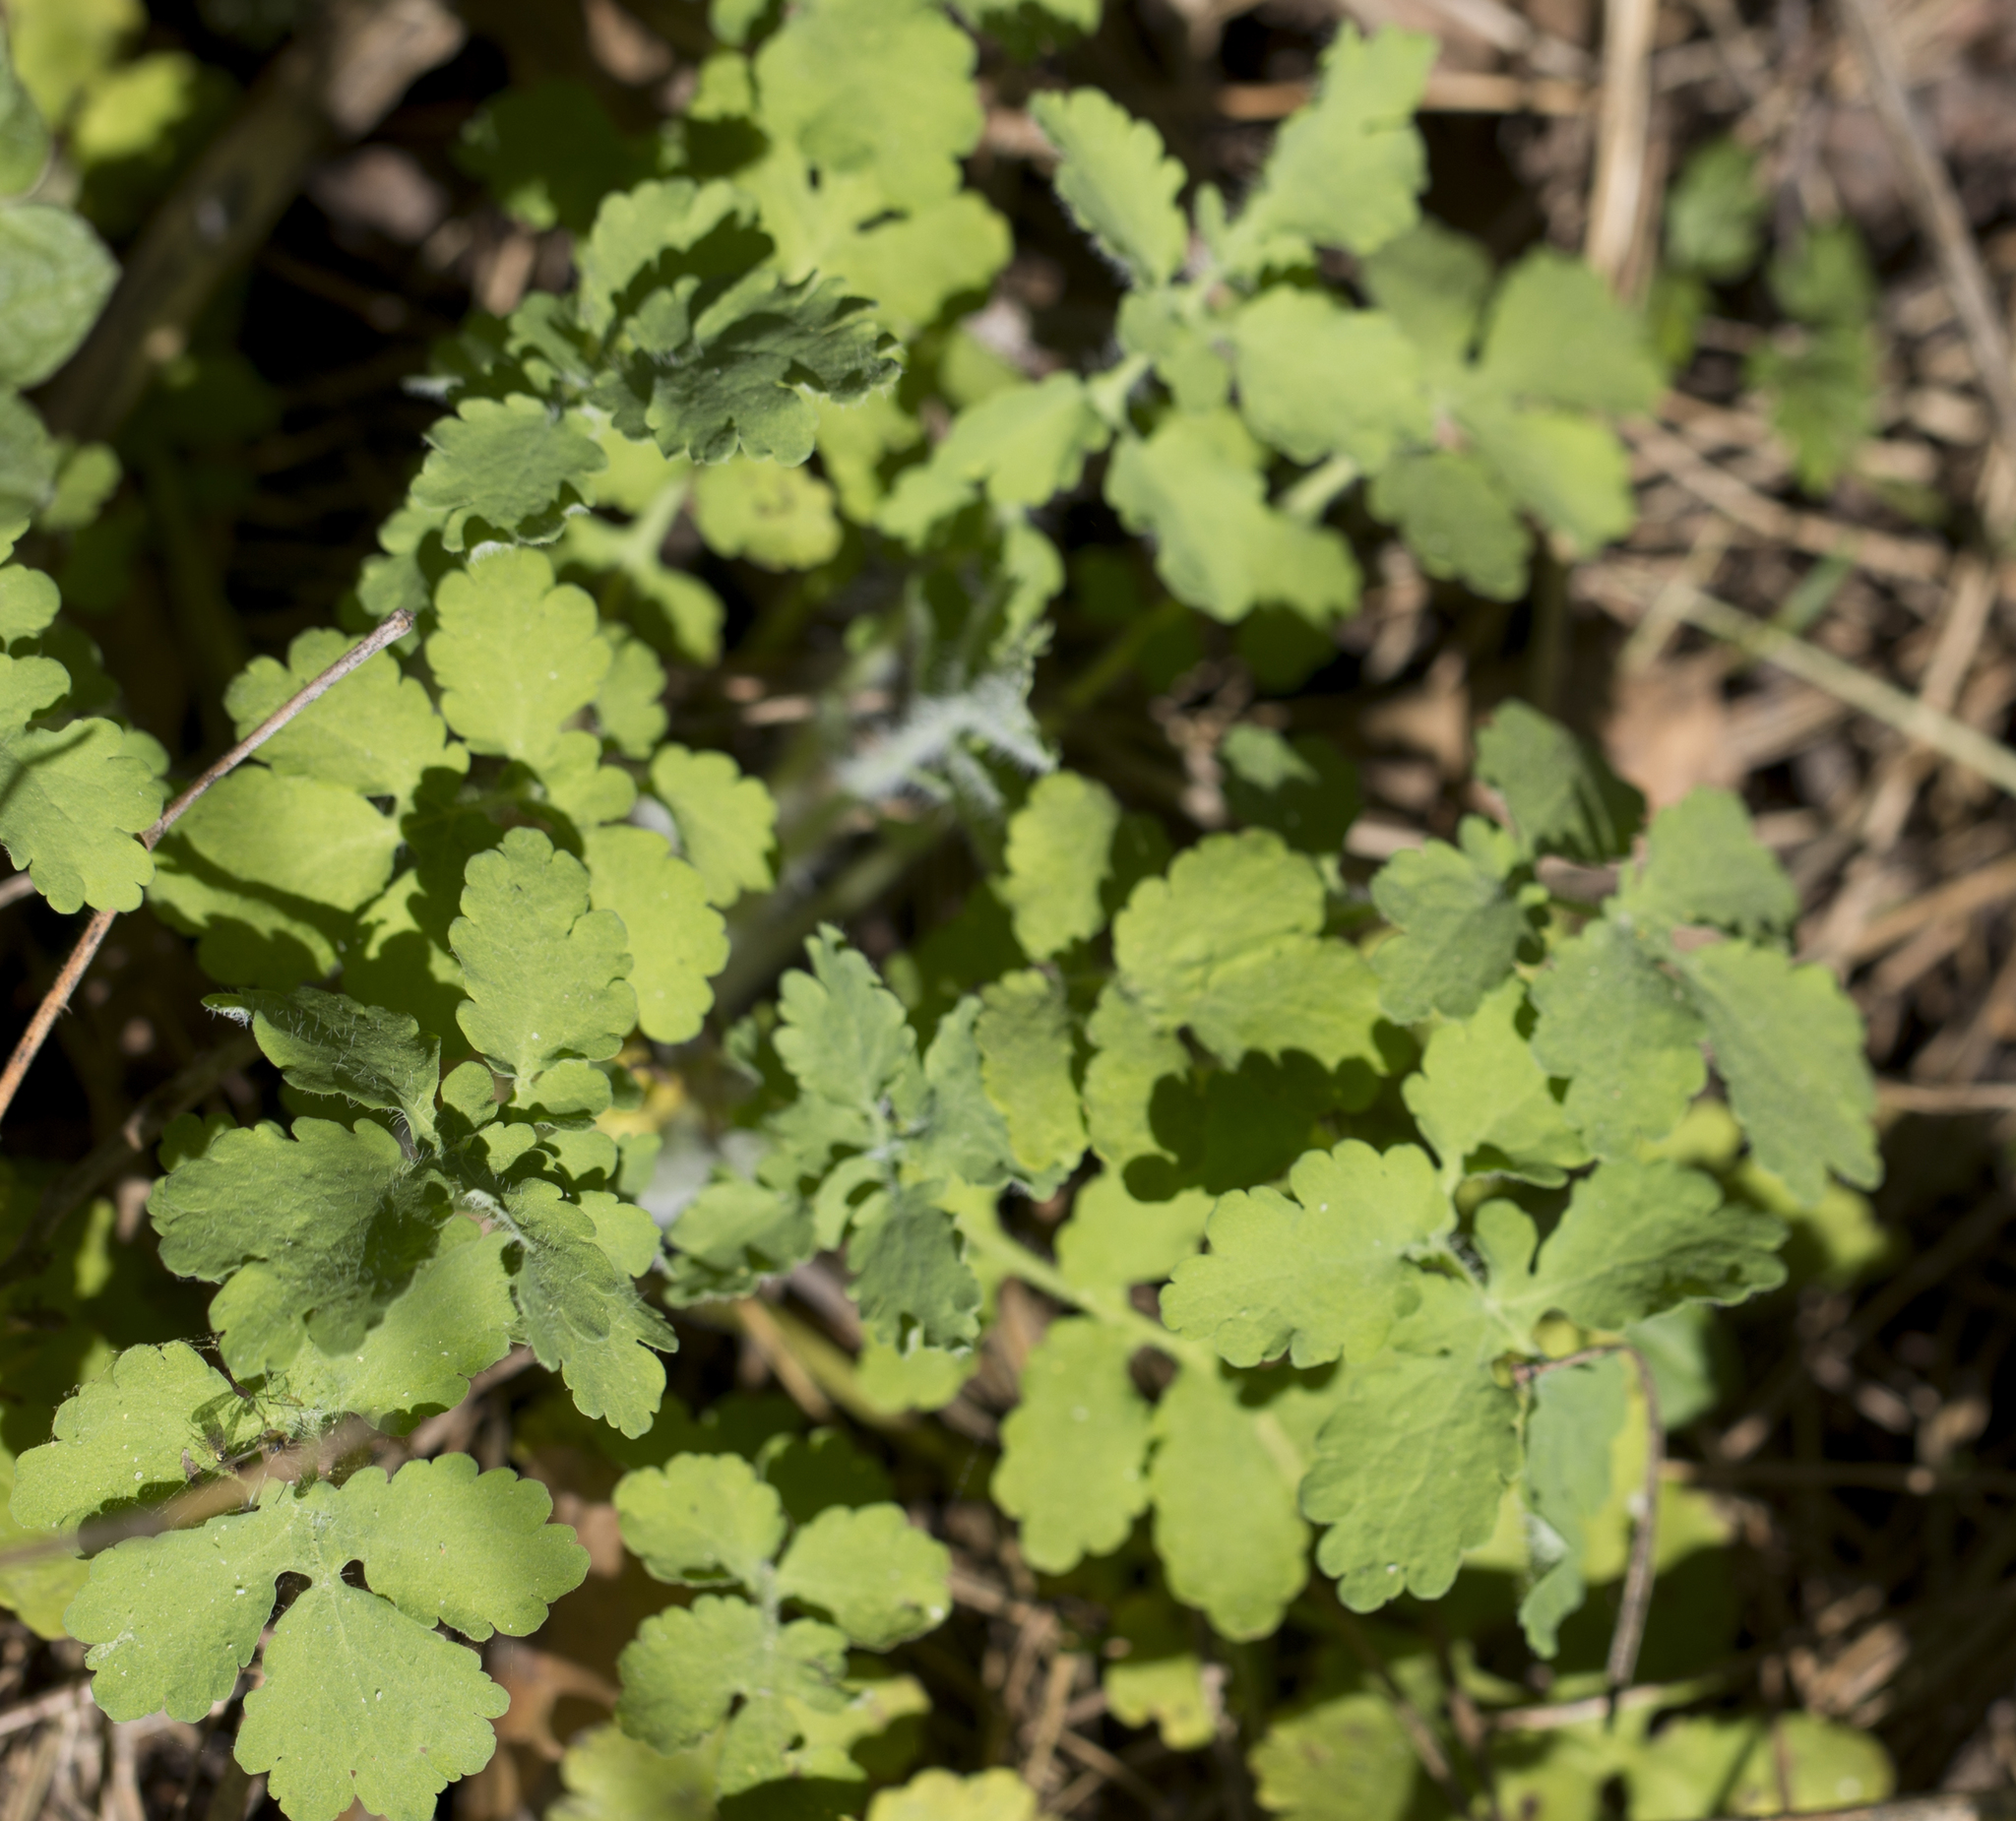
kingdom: Plantae
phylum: Tracheophyta
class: Magnoliopsida
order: Ranunculales
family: Papaveraceae
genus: Chelidonium
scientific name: Chelidonium majus
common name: Greater celandine
